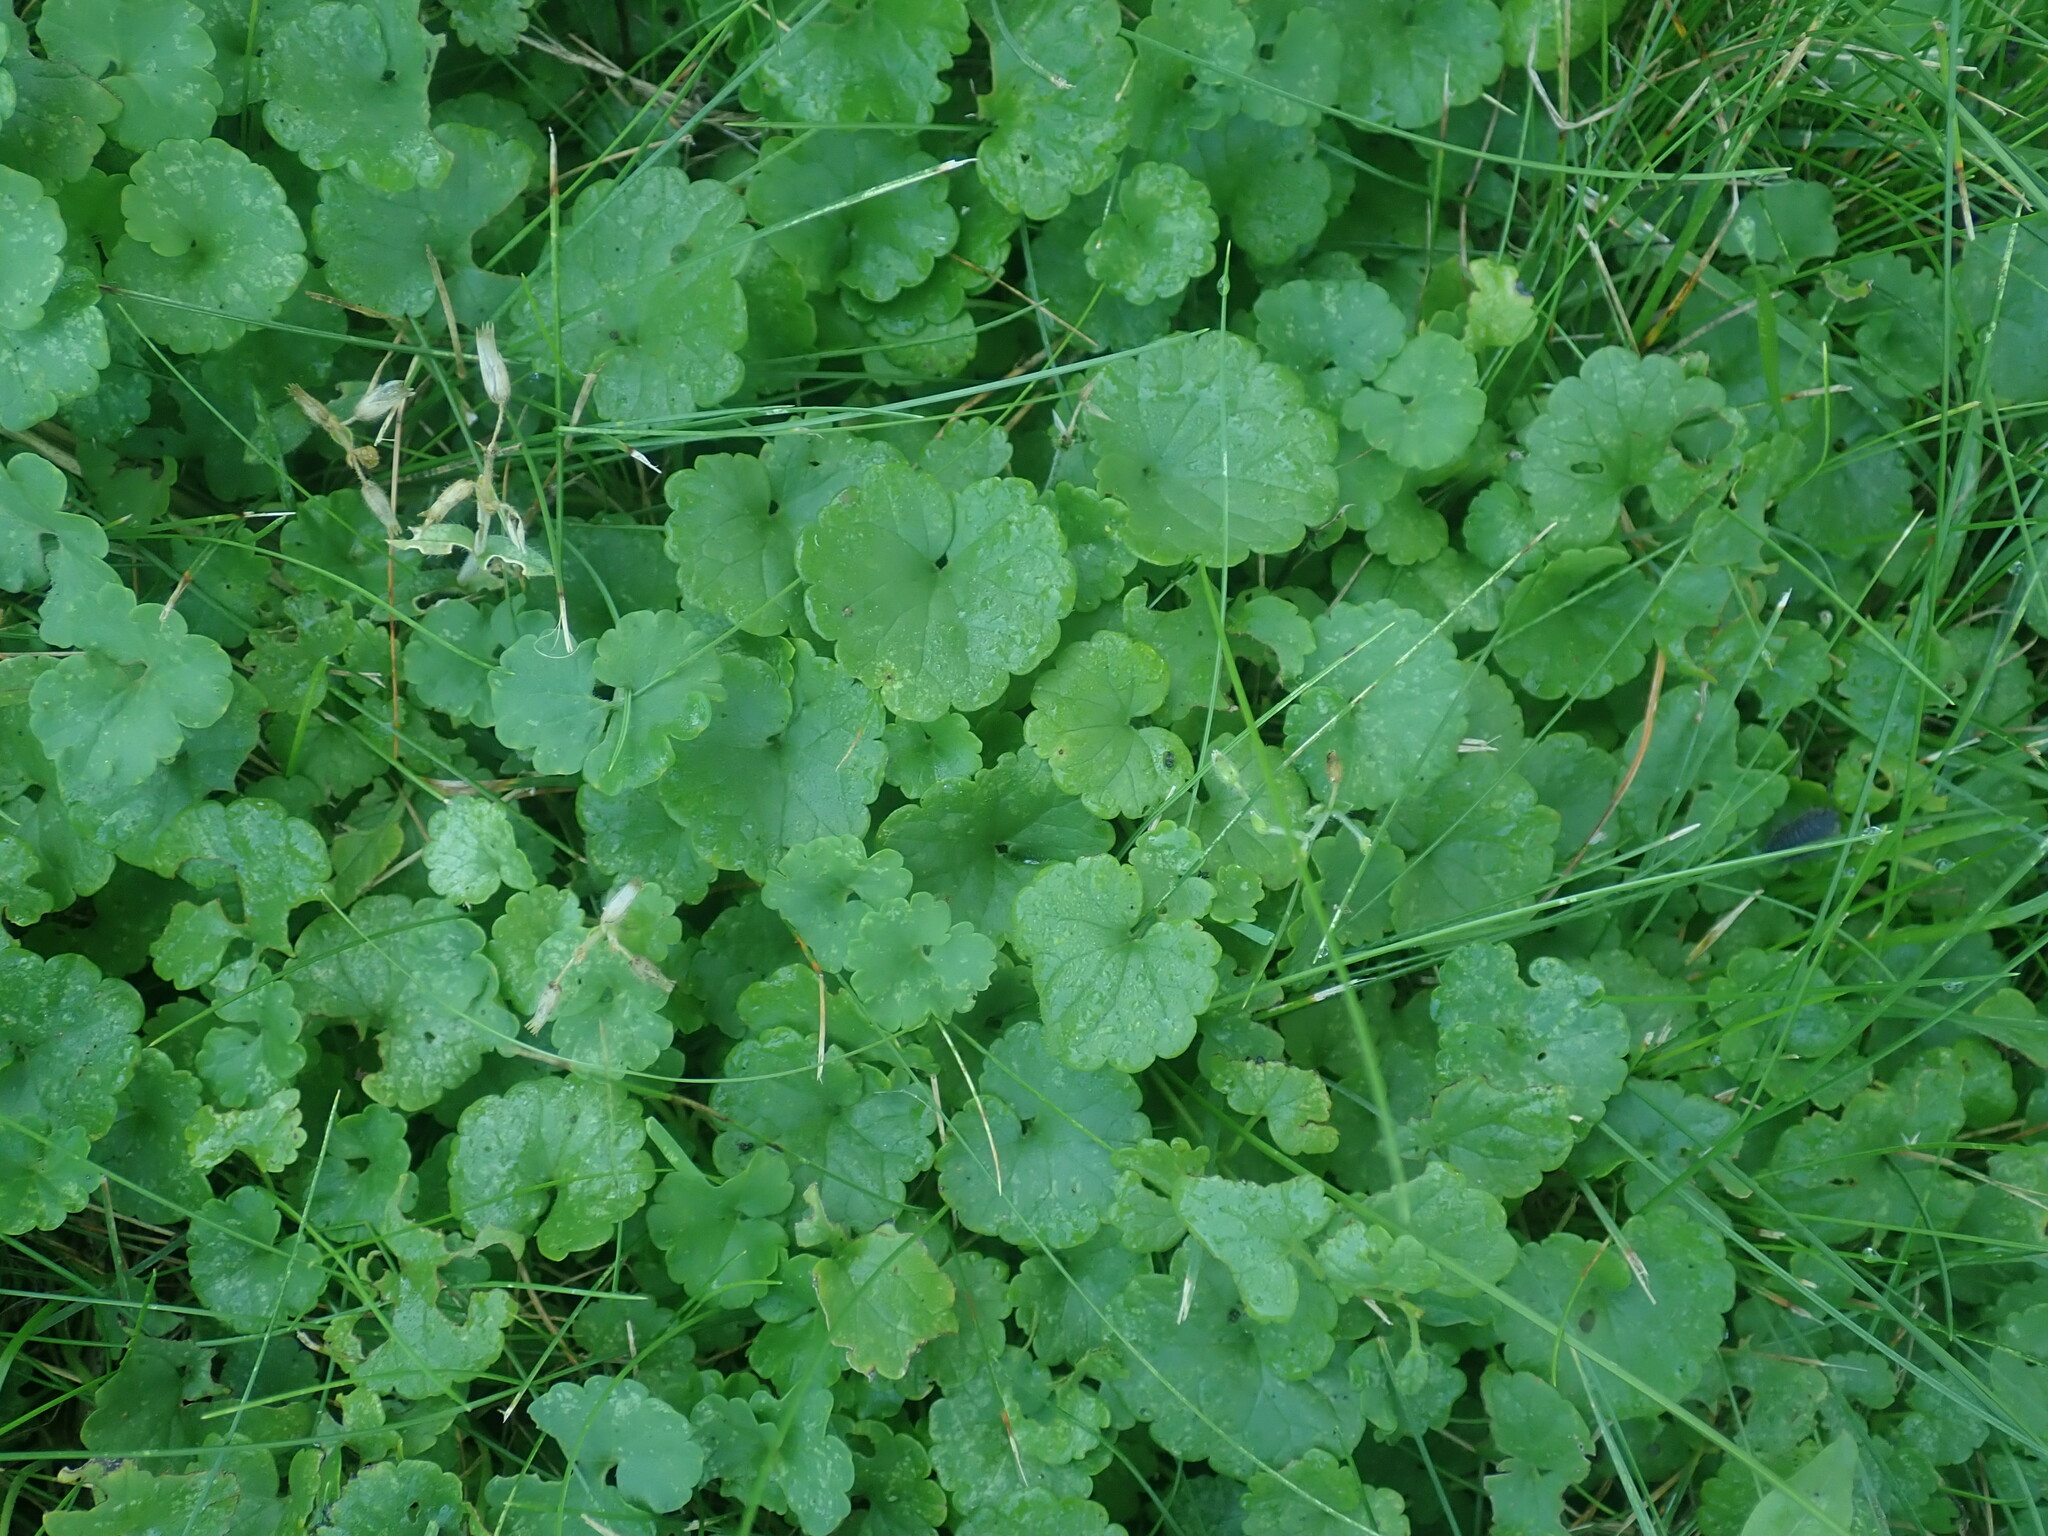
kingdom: Plantae
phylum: Tracheophyta
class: Magnoliopsida
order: Lamiales
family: Lamiaceae
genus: Glechoma
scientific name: Glechoma hederacea
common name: Ground ivy
